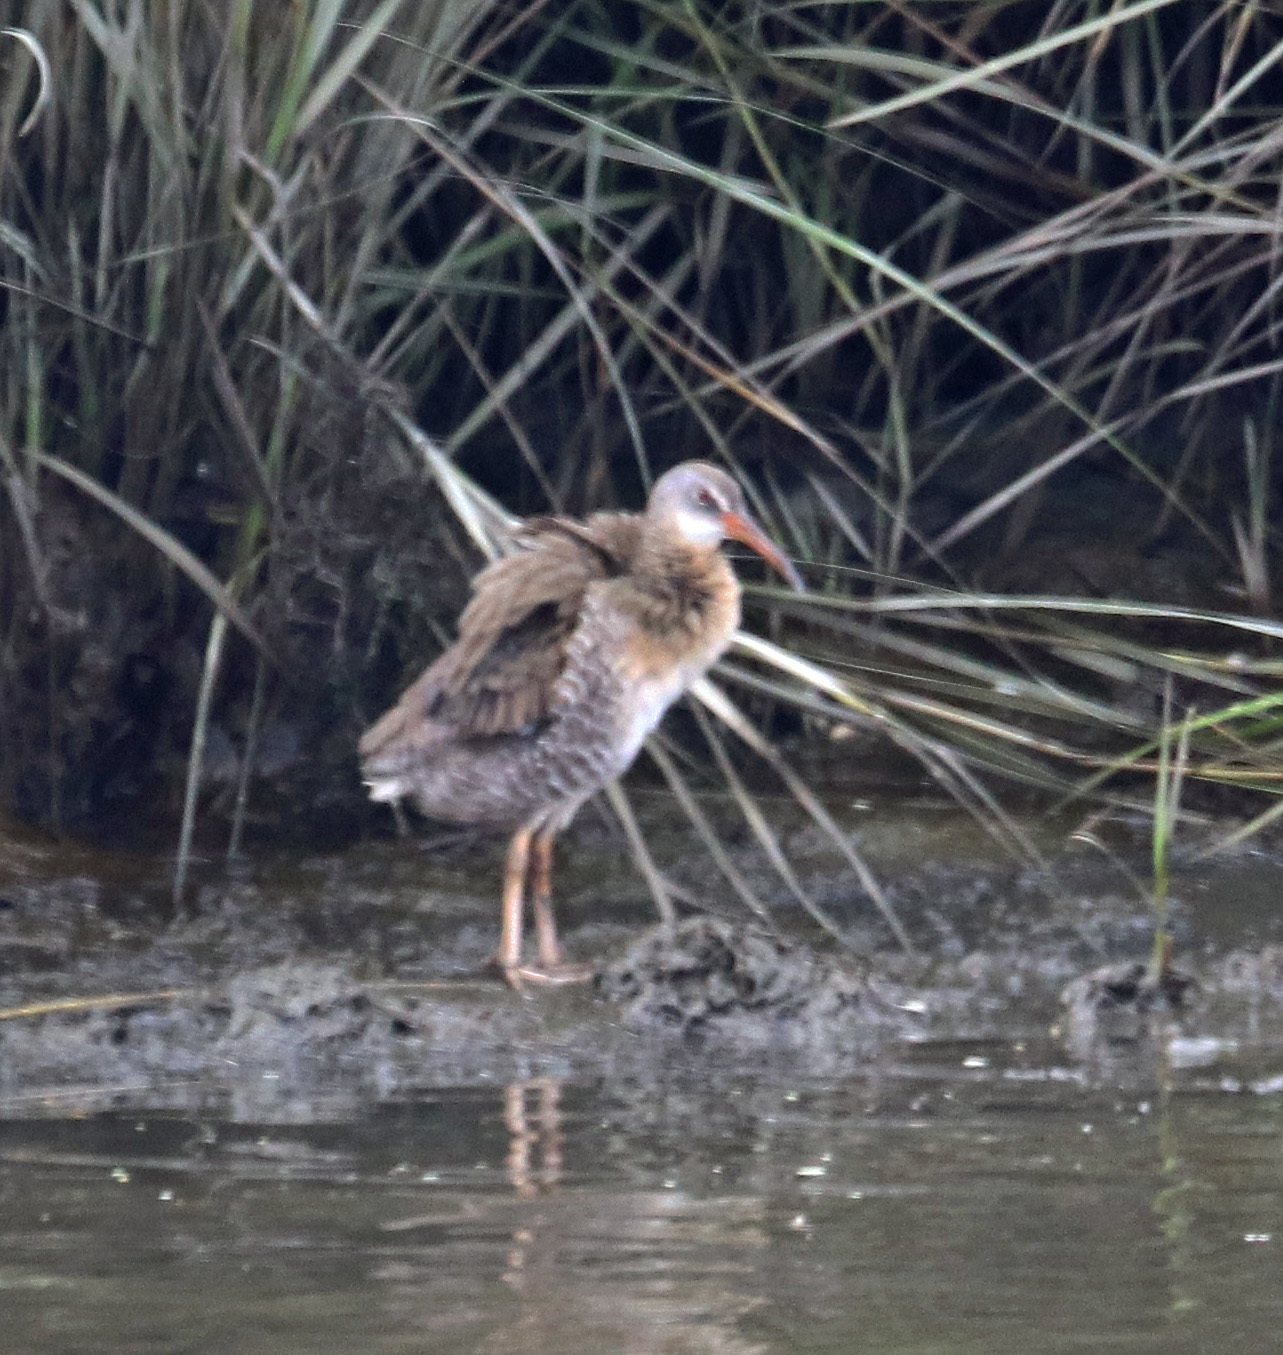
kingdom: Animalia
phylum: Chordata
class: Aves
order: Gruiformes
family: Rallidae
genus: Rallus
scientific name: Rallus crepitans
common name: Clapper rail
